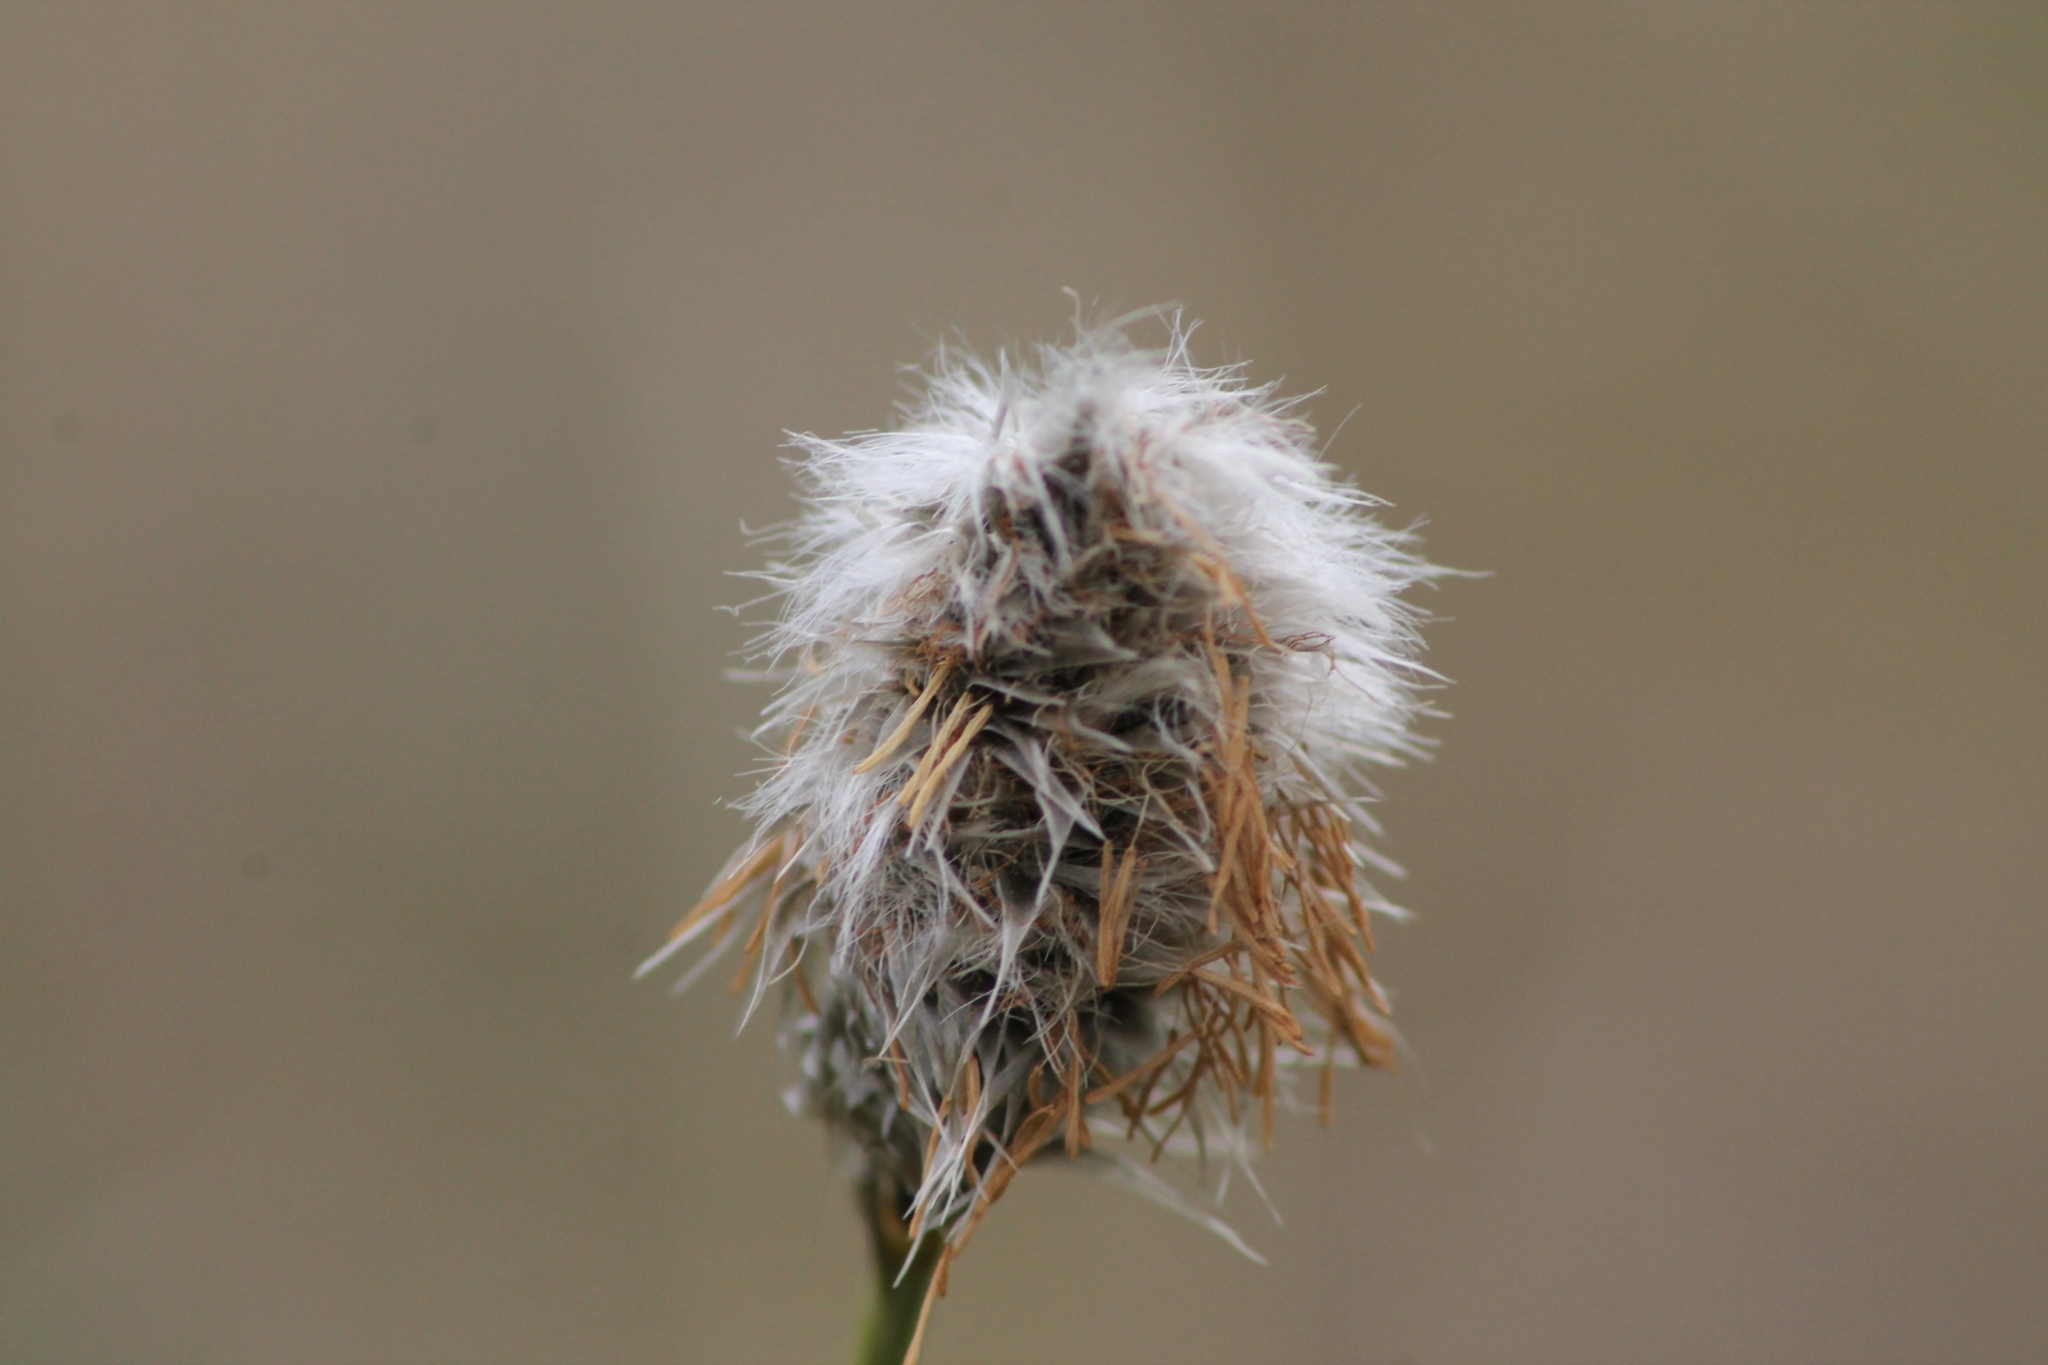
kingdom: Plantae
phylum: Tracheophyta
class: Liliopsida
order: Poales
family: Cyperaceae
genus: Eriophorum
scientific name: Eriophorum vaginatum
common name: Hare's-tail cottongrass
